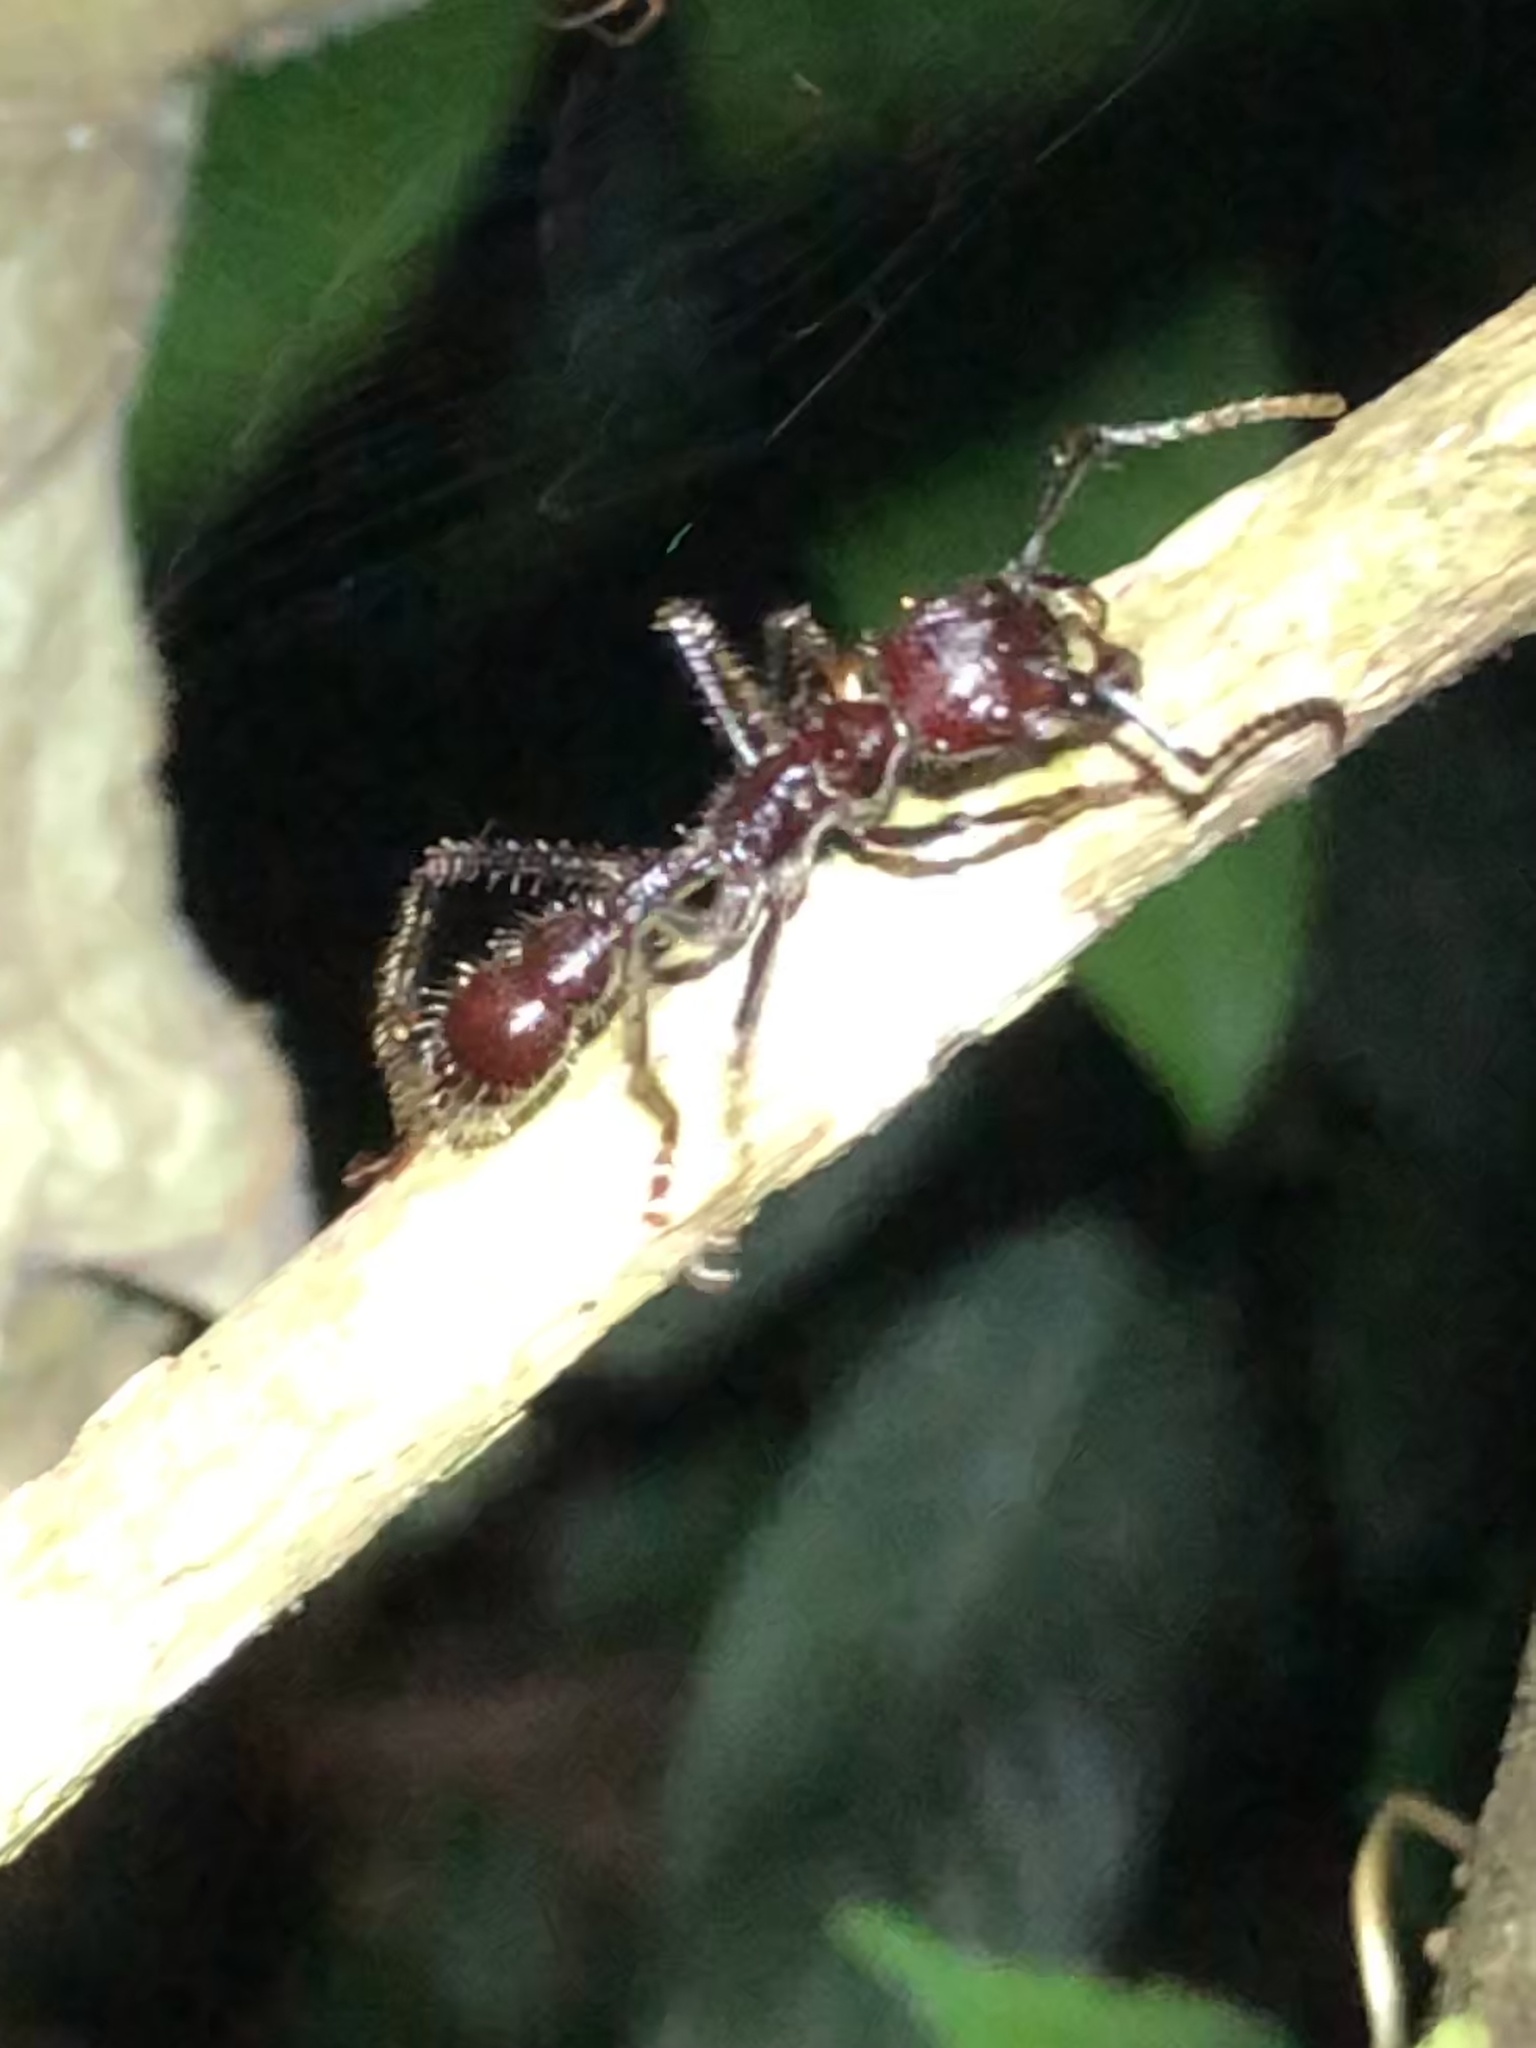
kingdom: Animalia
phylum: Arthropoda
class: Insecta
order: Hymenoptera
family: Formicidae
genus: Paraponera
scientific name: Paraponera clavata
